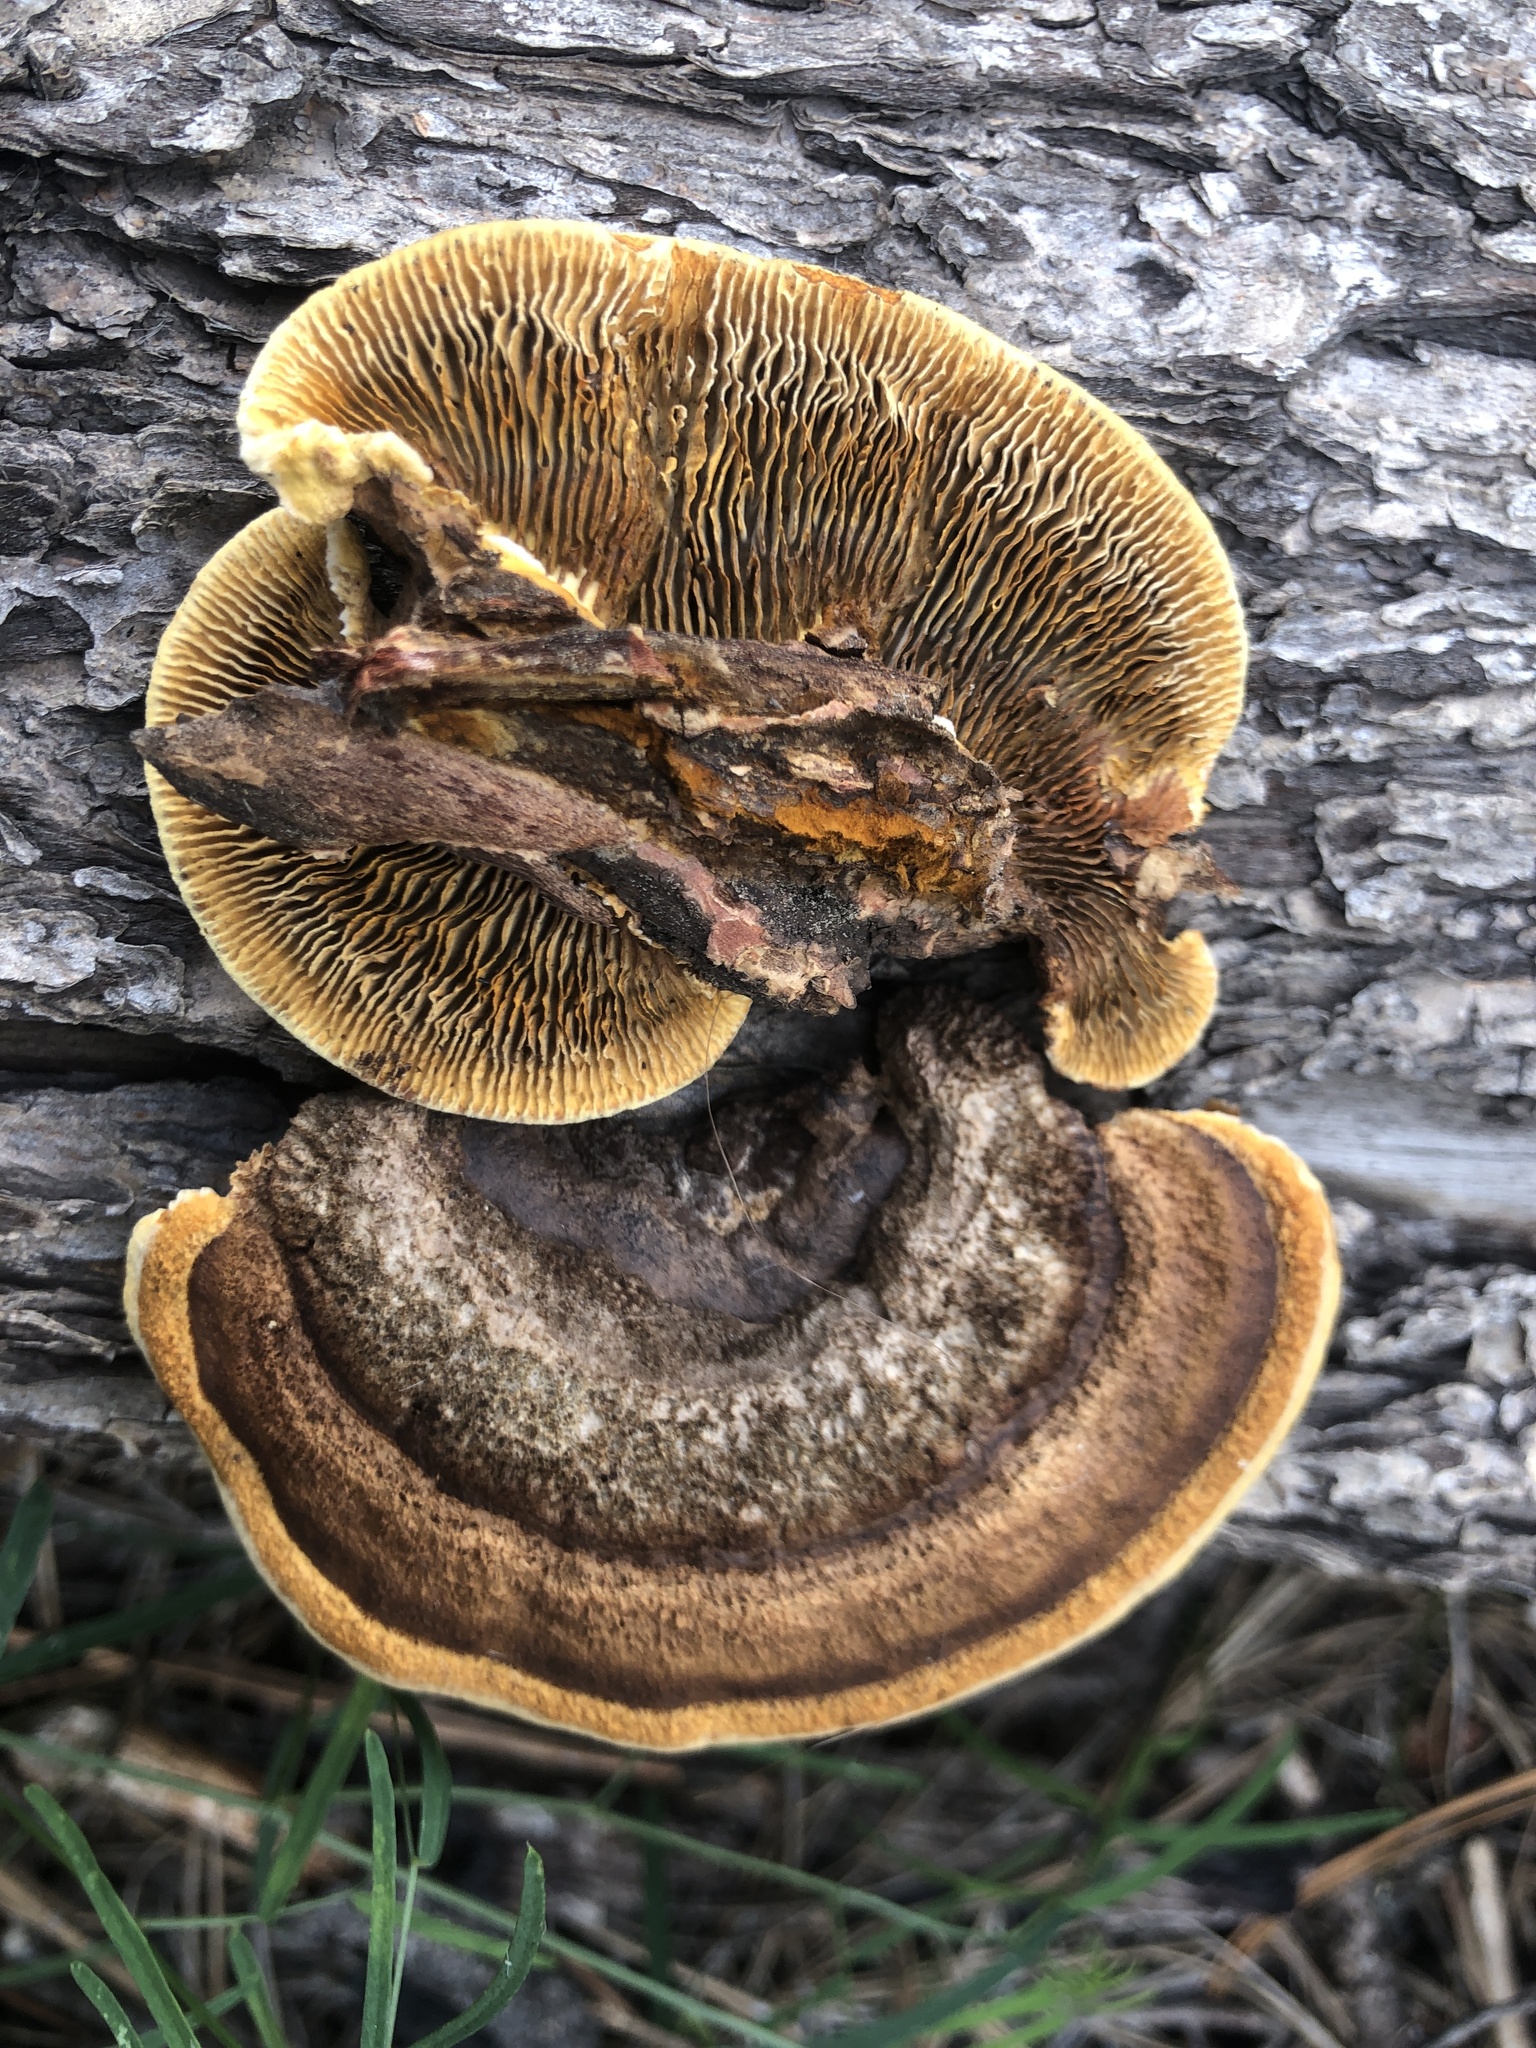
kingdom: Fungi
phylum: Basidiomycota
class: Agaricomycetes
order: Gloeophyllales
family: Gloeophyllaceae
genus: Gloeophyllum
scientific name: Gloeophyllum sepiarium
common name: Conifer mazegill
